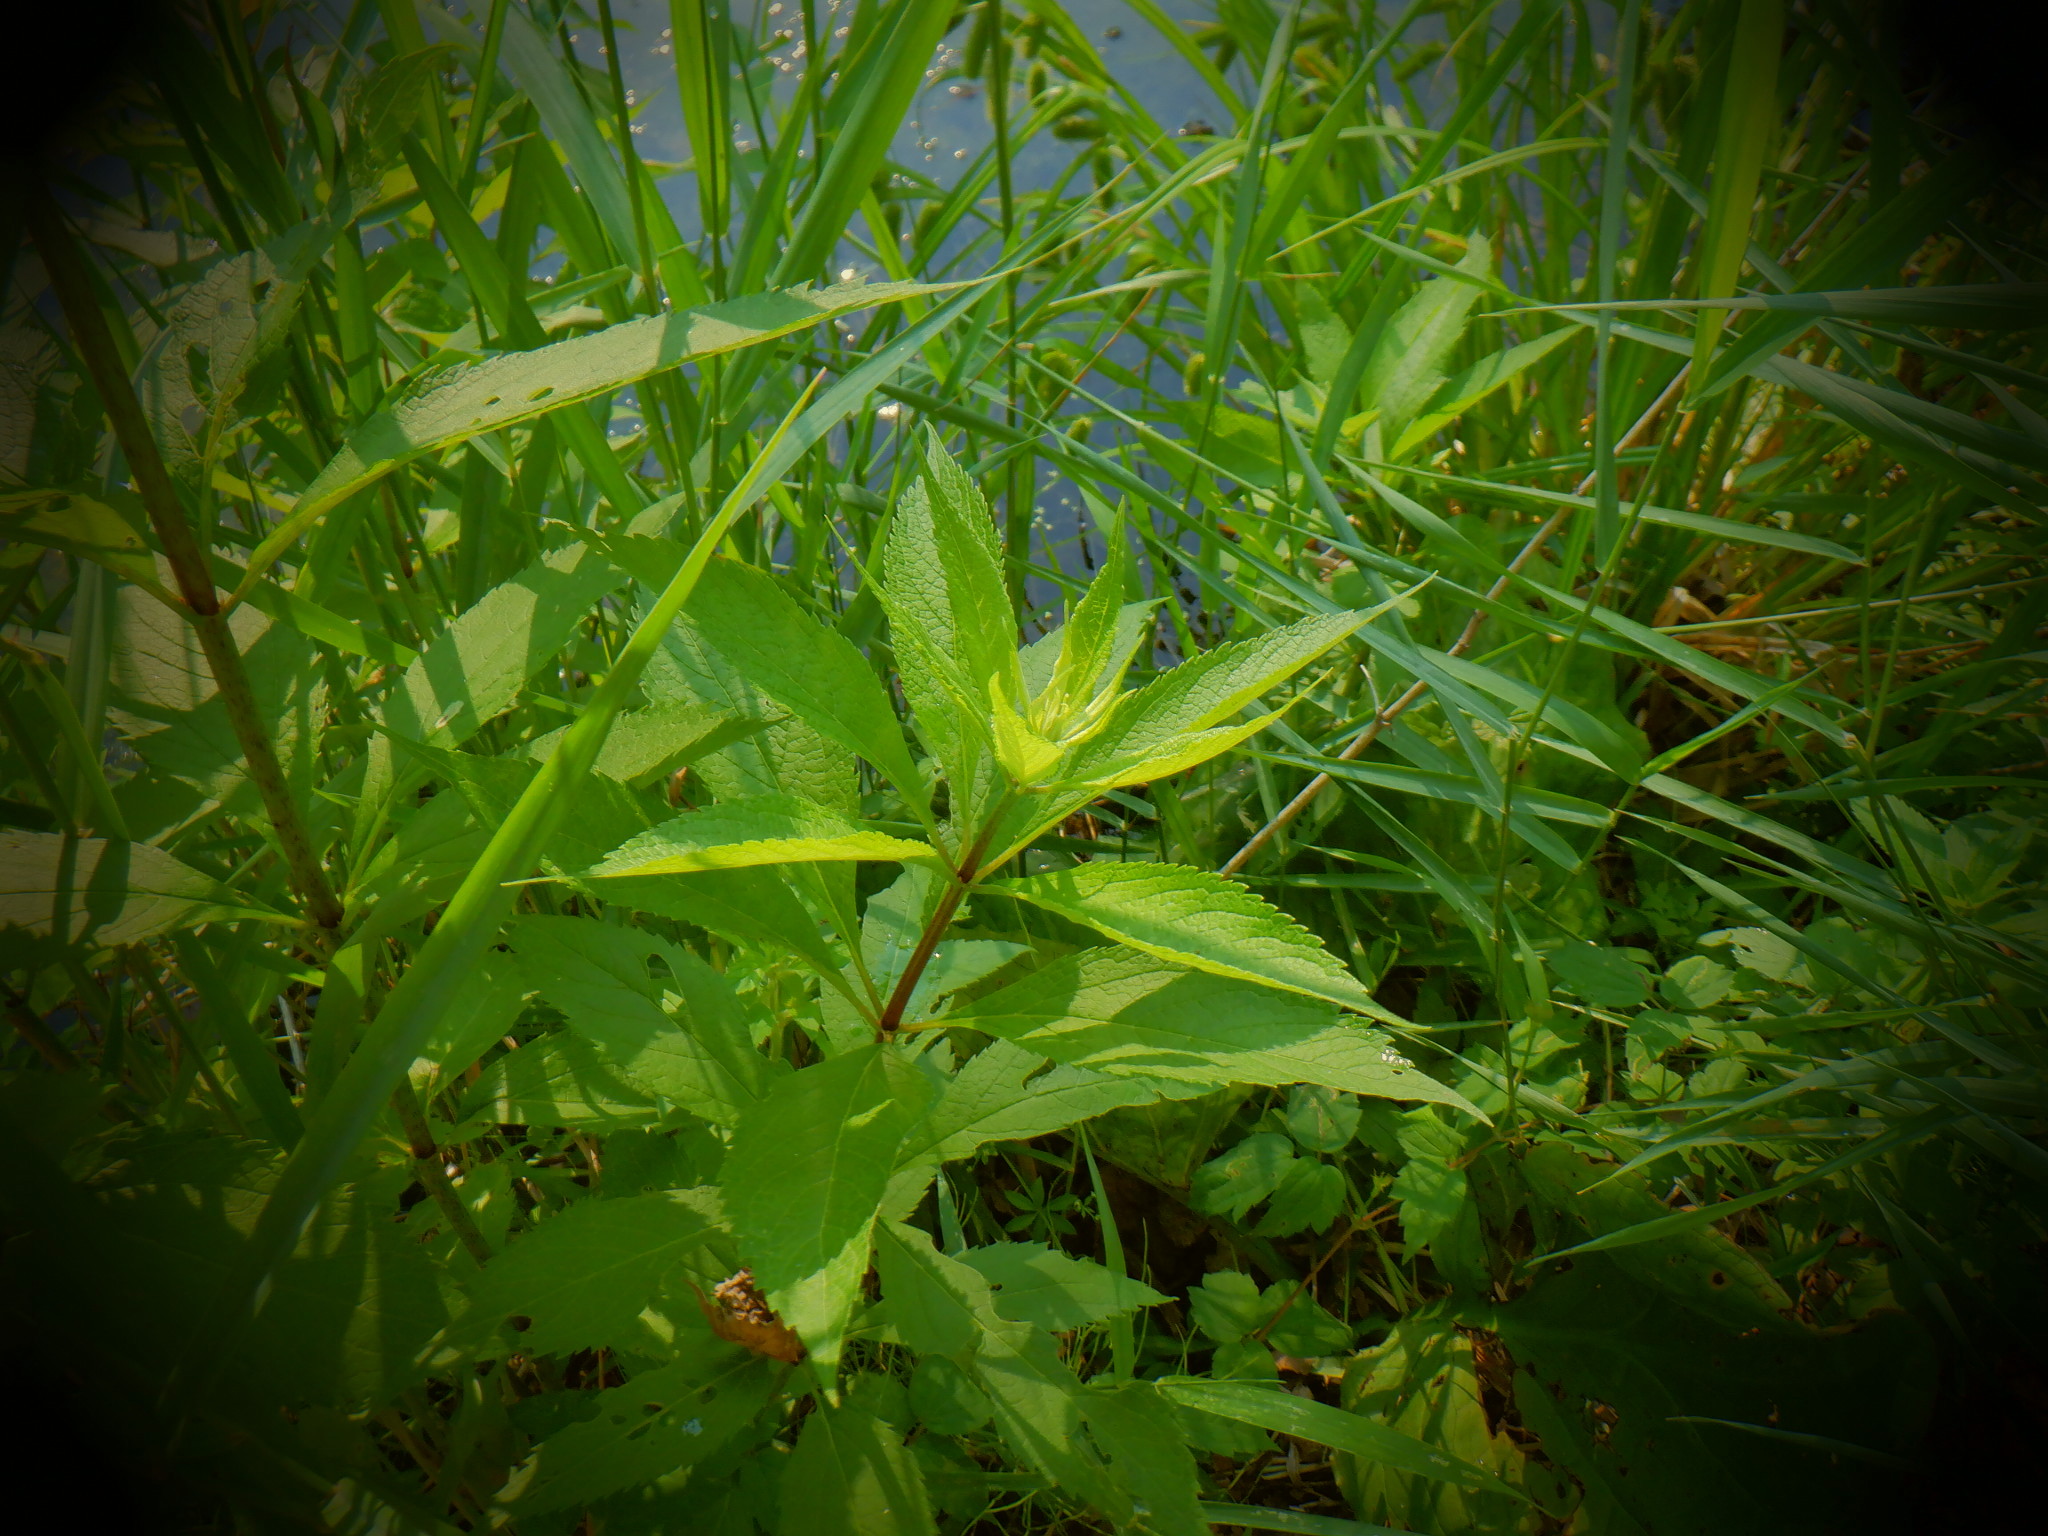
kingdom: Plantae
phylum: Tracheophyta
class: Magnoliopsida
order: Asterales
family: Asteraceae
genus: Eutrochium
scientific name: Eutrochium maculatum
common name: Spotted joe pye weed
